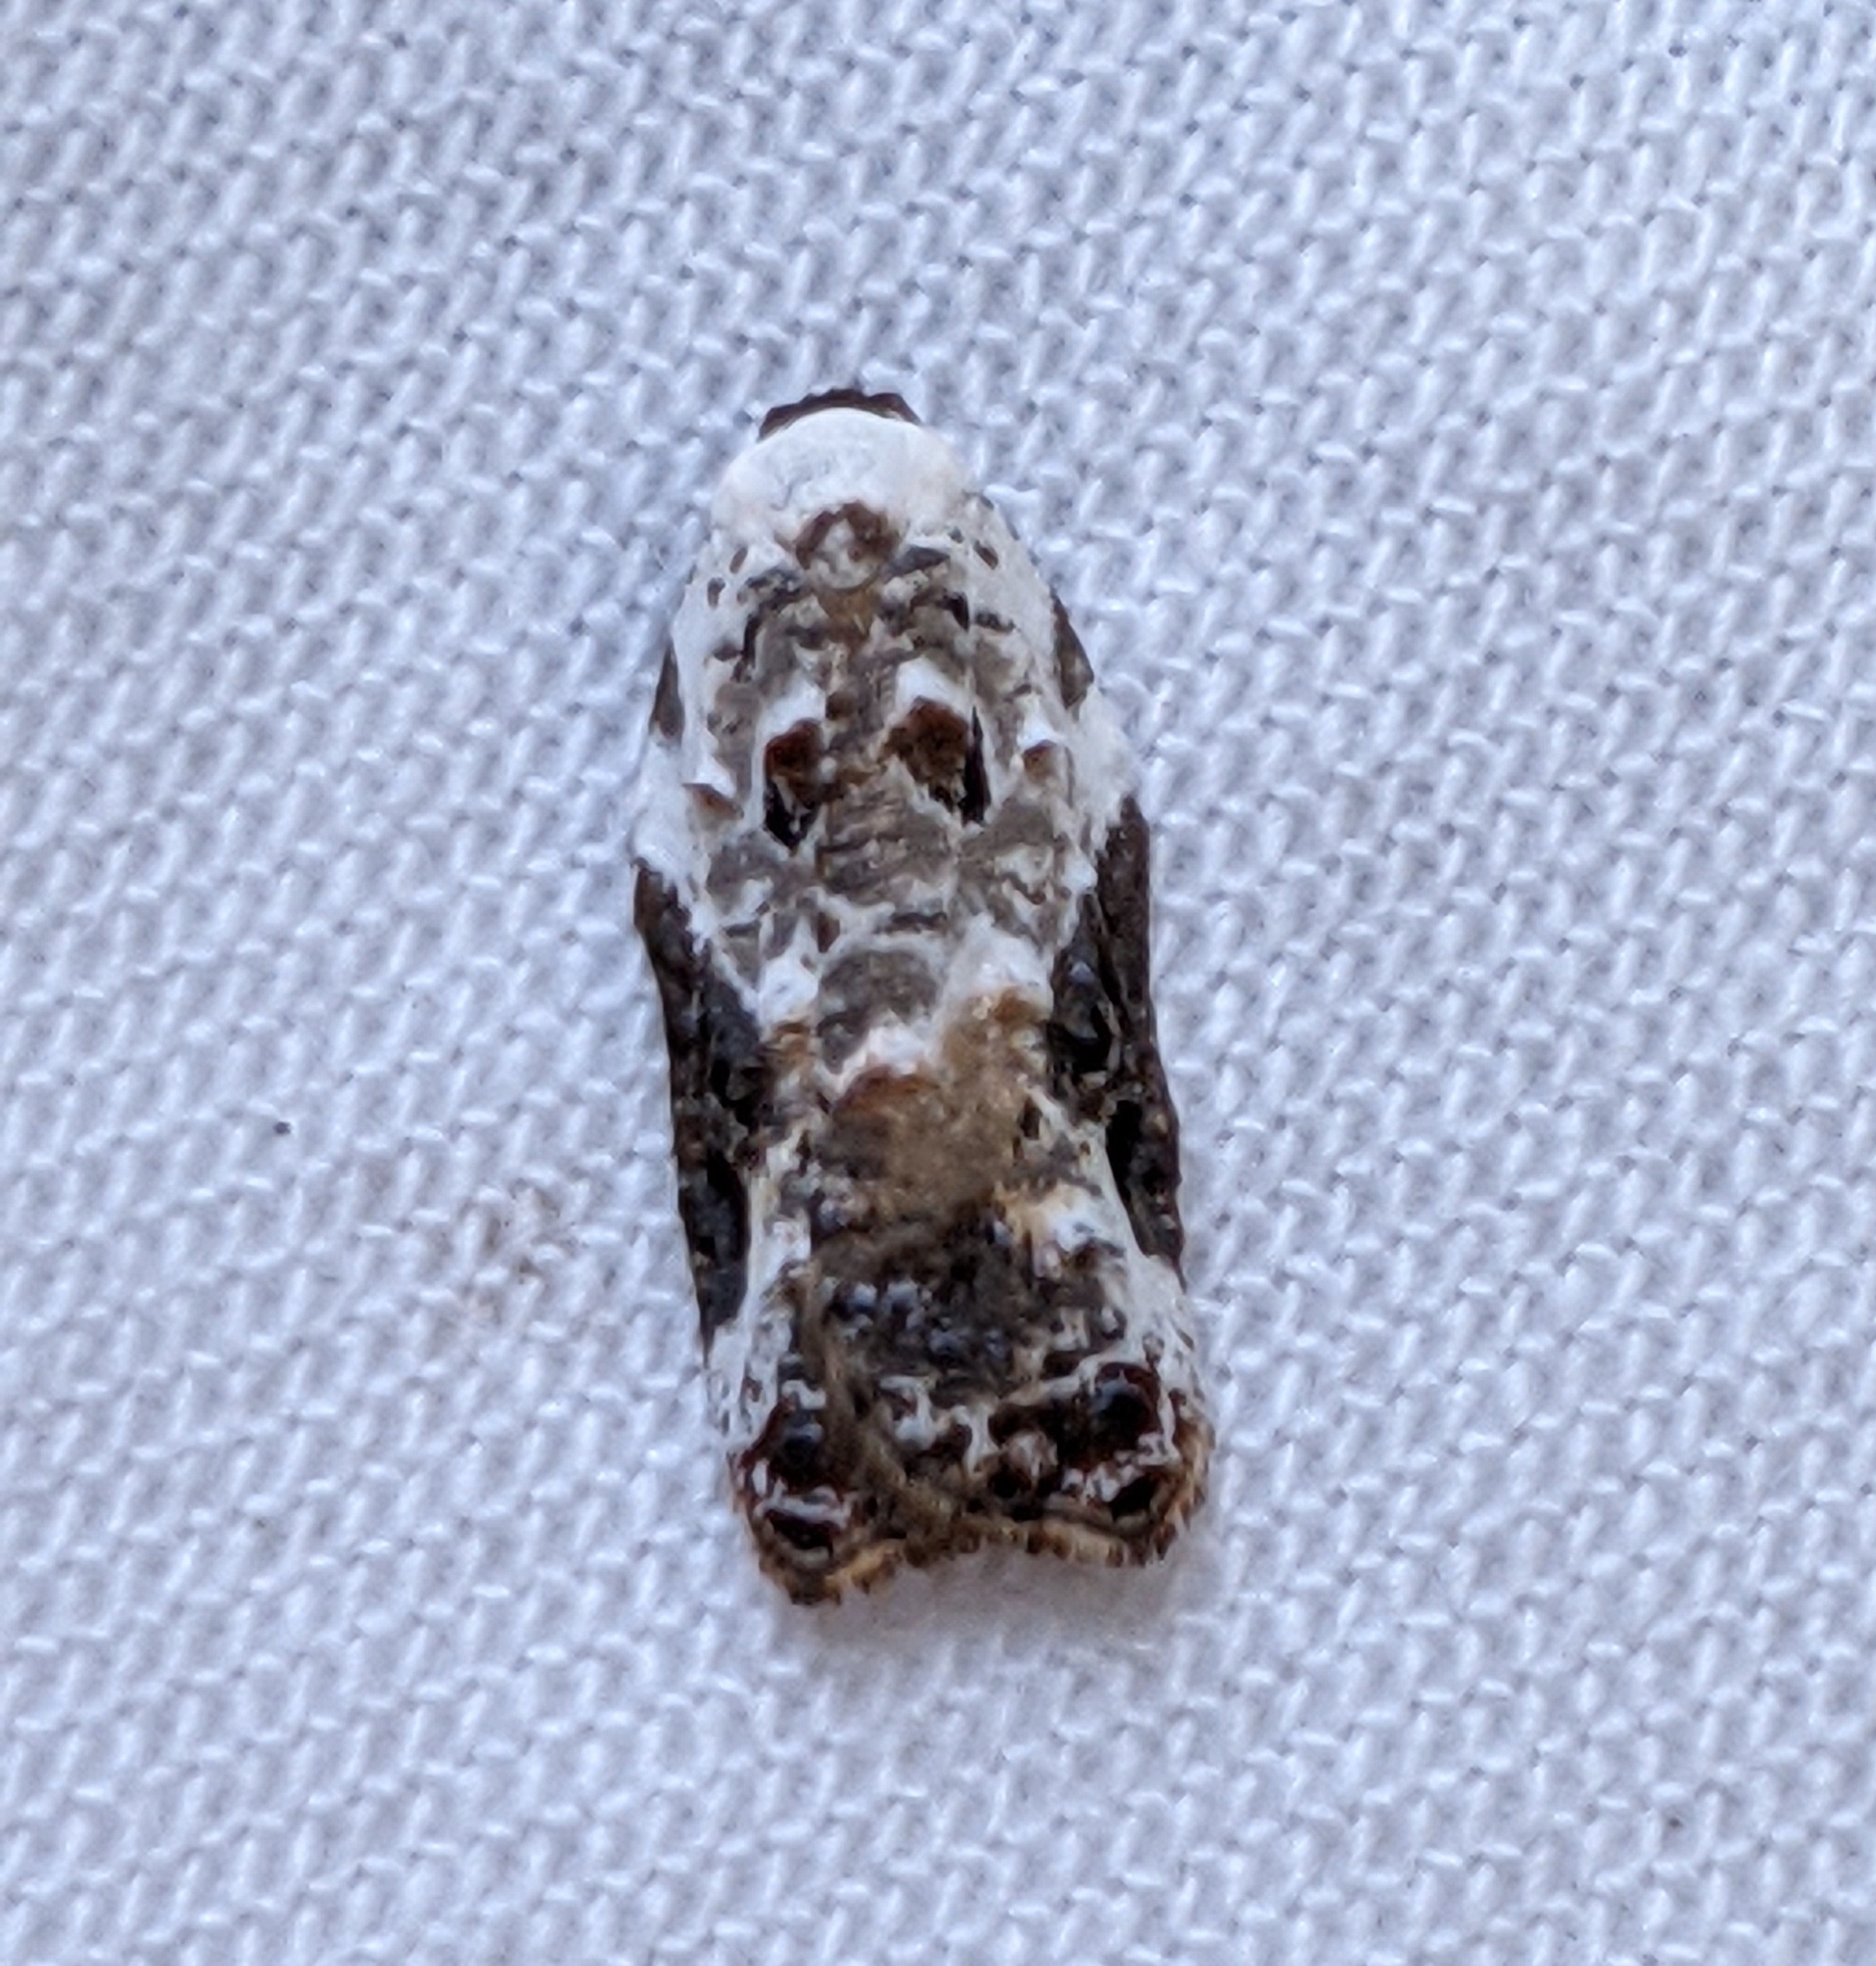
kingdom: Animalia
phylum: Arthropoda
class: Insecta
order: Lepidoptera
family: Tortricidae
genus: Acleris
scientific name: Acleris nivisellana
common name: Snowy-shouldered acleris moth
